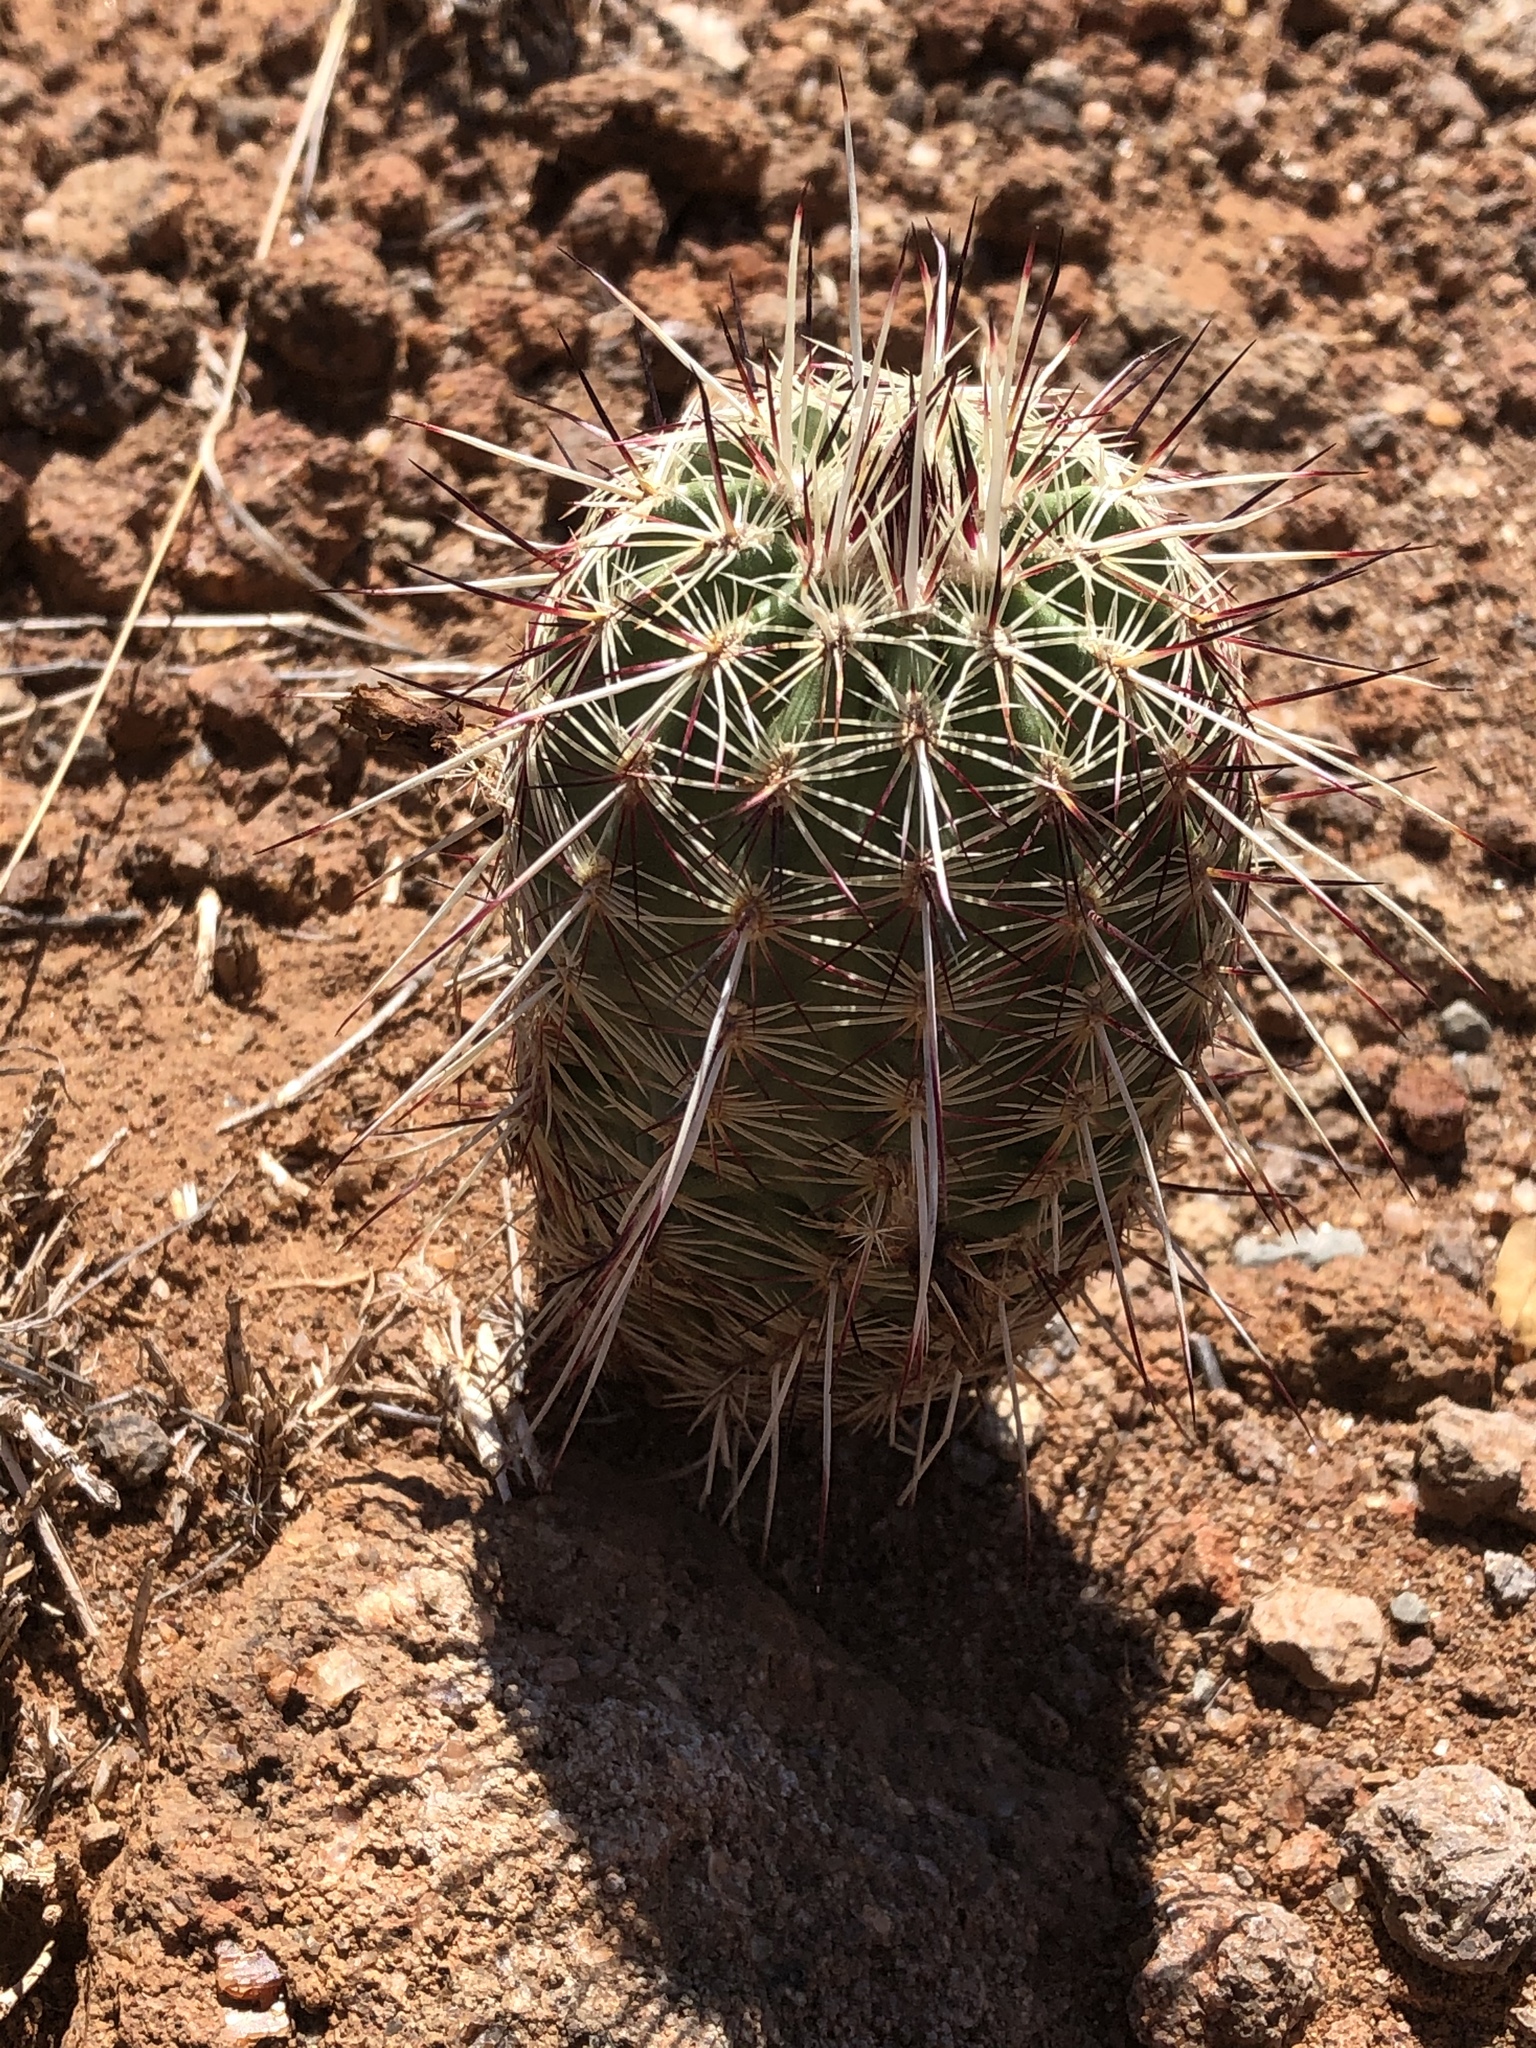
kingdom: Plantae
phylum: Tracheophyta
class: Magnoliopsida
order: Caryophyllales
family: Cactaceae
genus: Echinocereus
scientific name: Echinocereus viridiflorus
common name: Nylon hedgehog cactus
